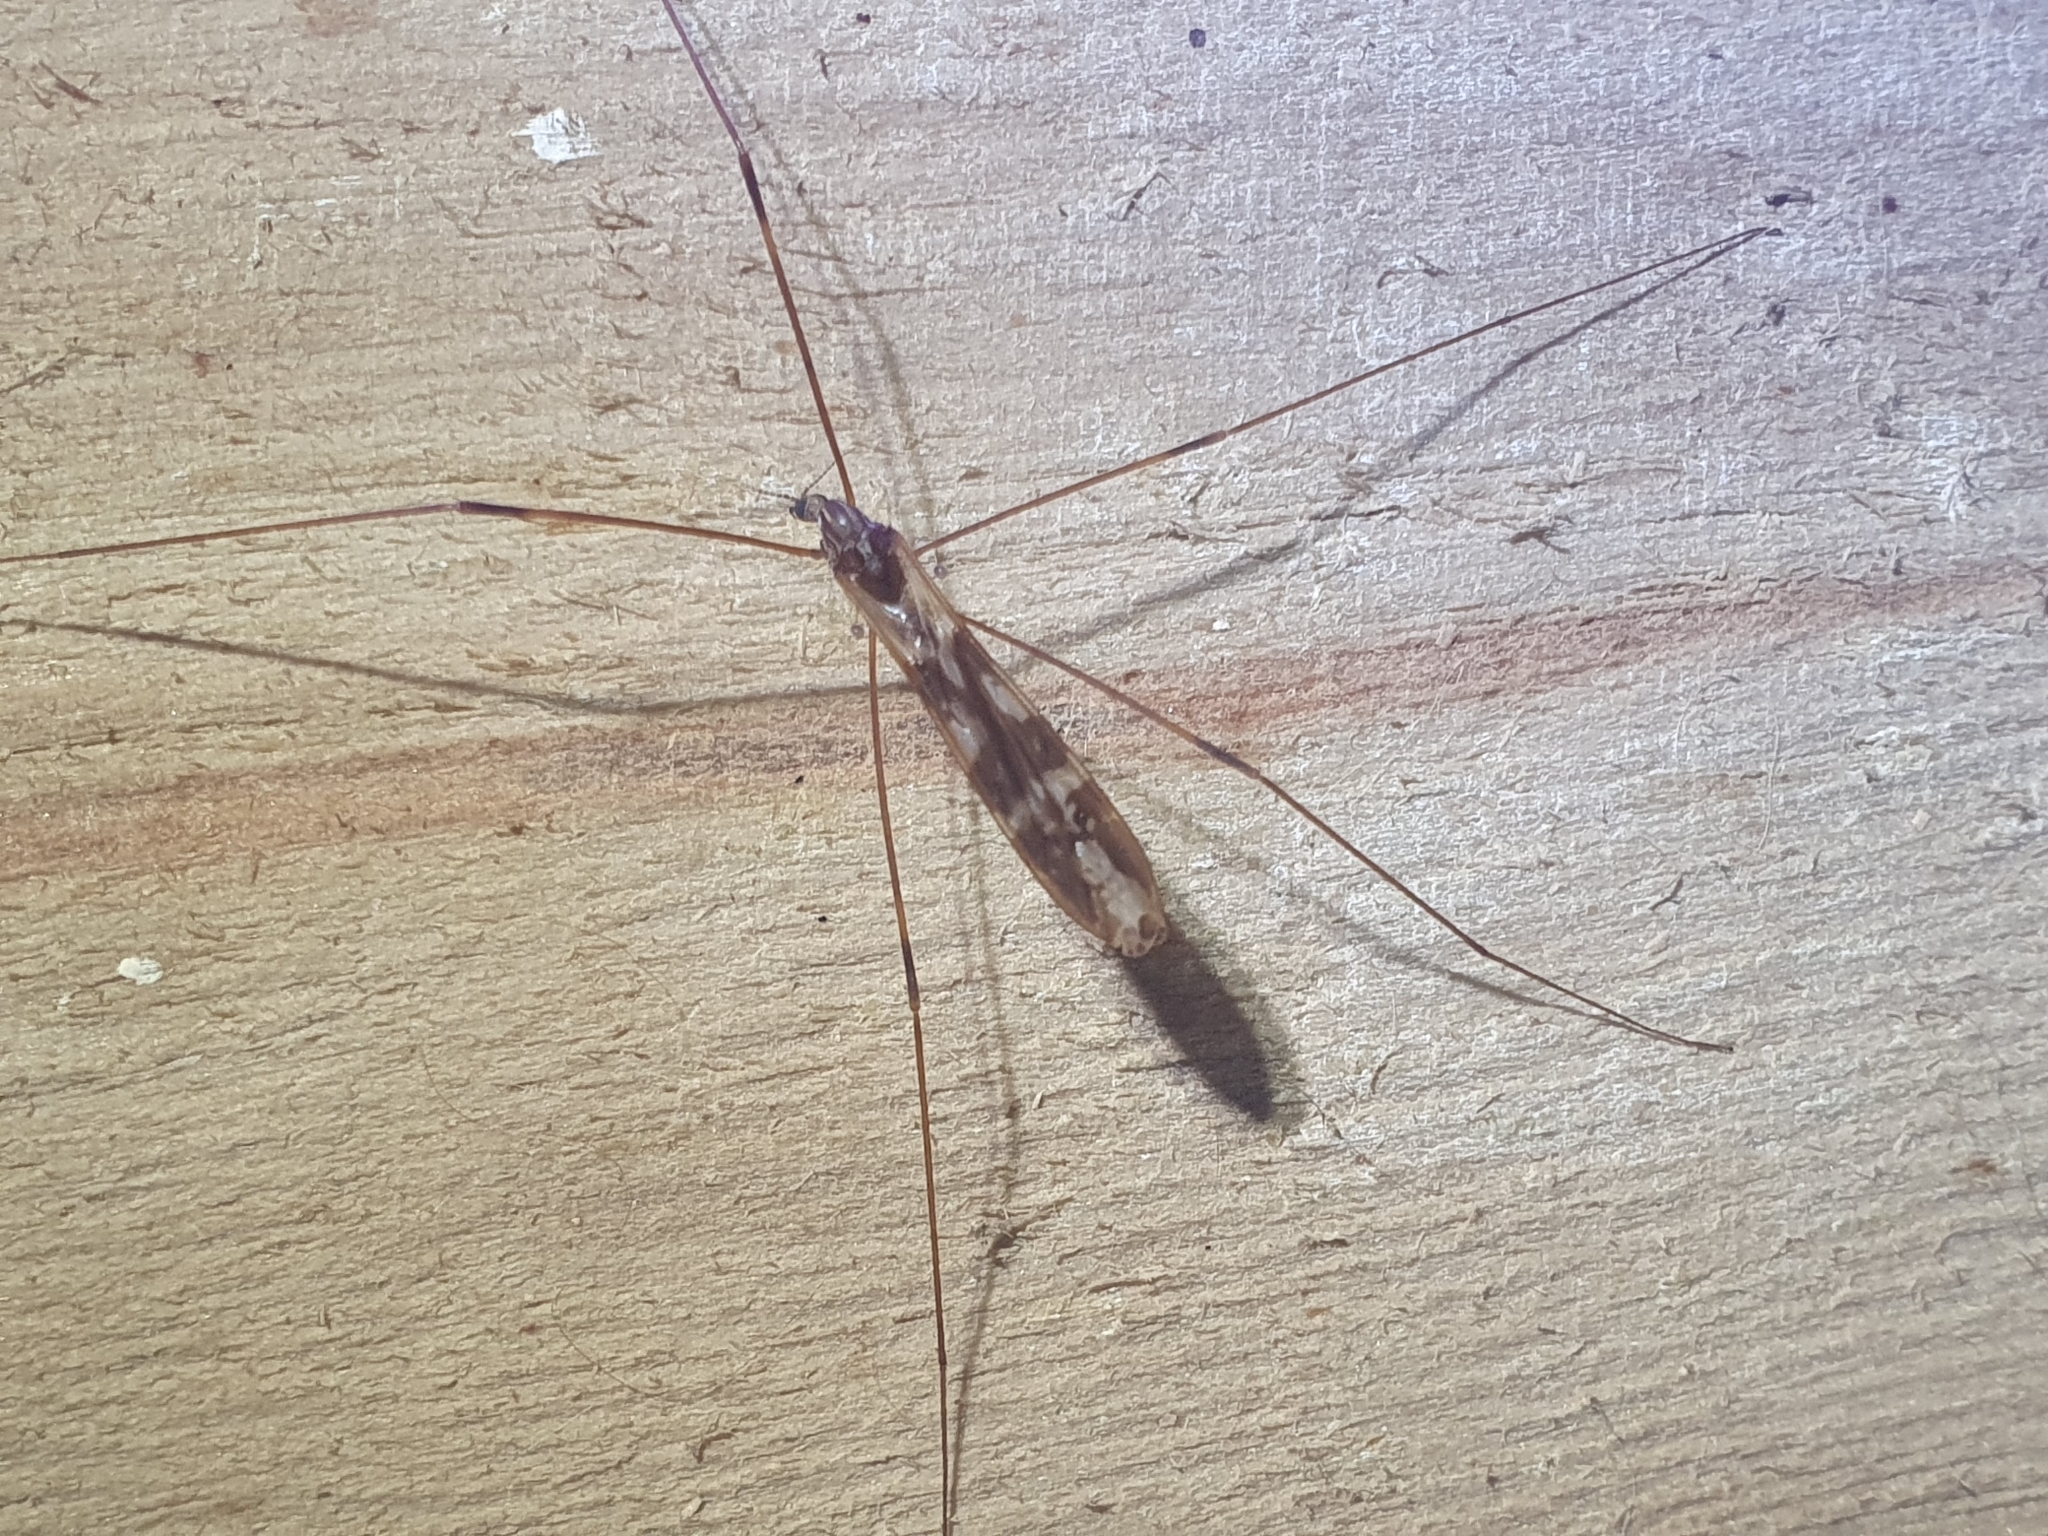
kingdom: Animalia
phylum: Arthropoda
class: Insecta
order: Diptera
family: Limoniidae
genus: Discobola
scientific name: Discobola dohrni
